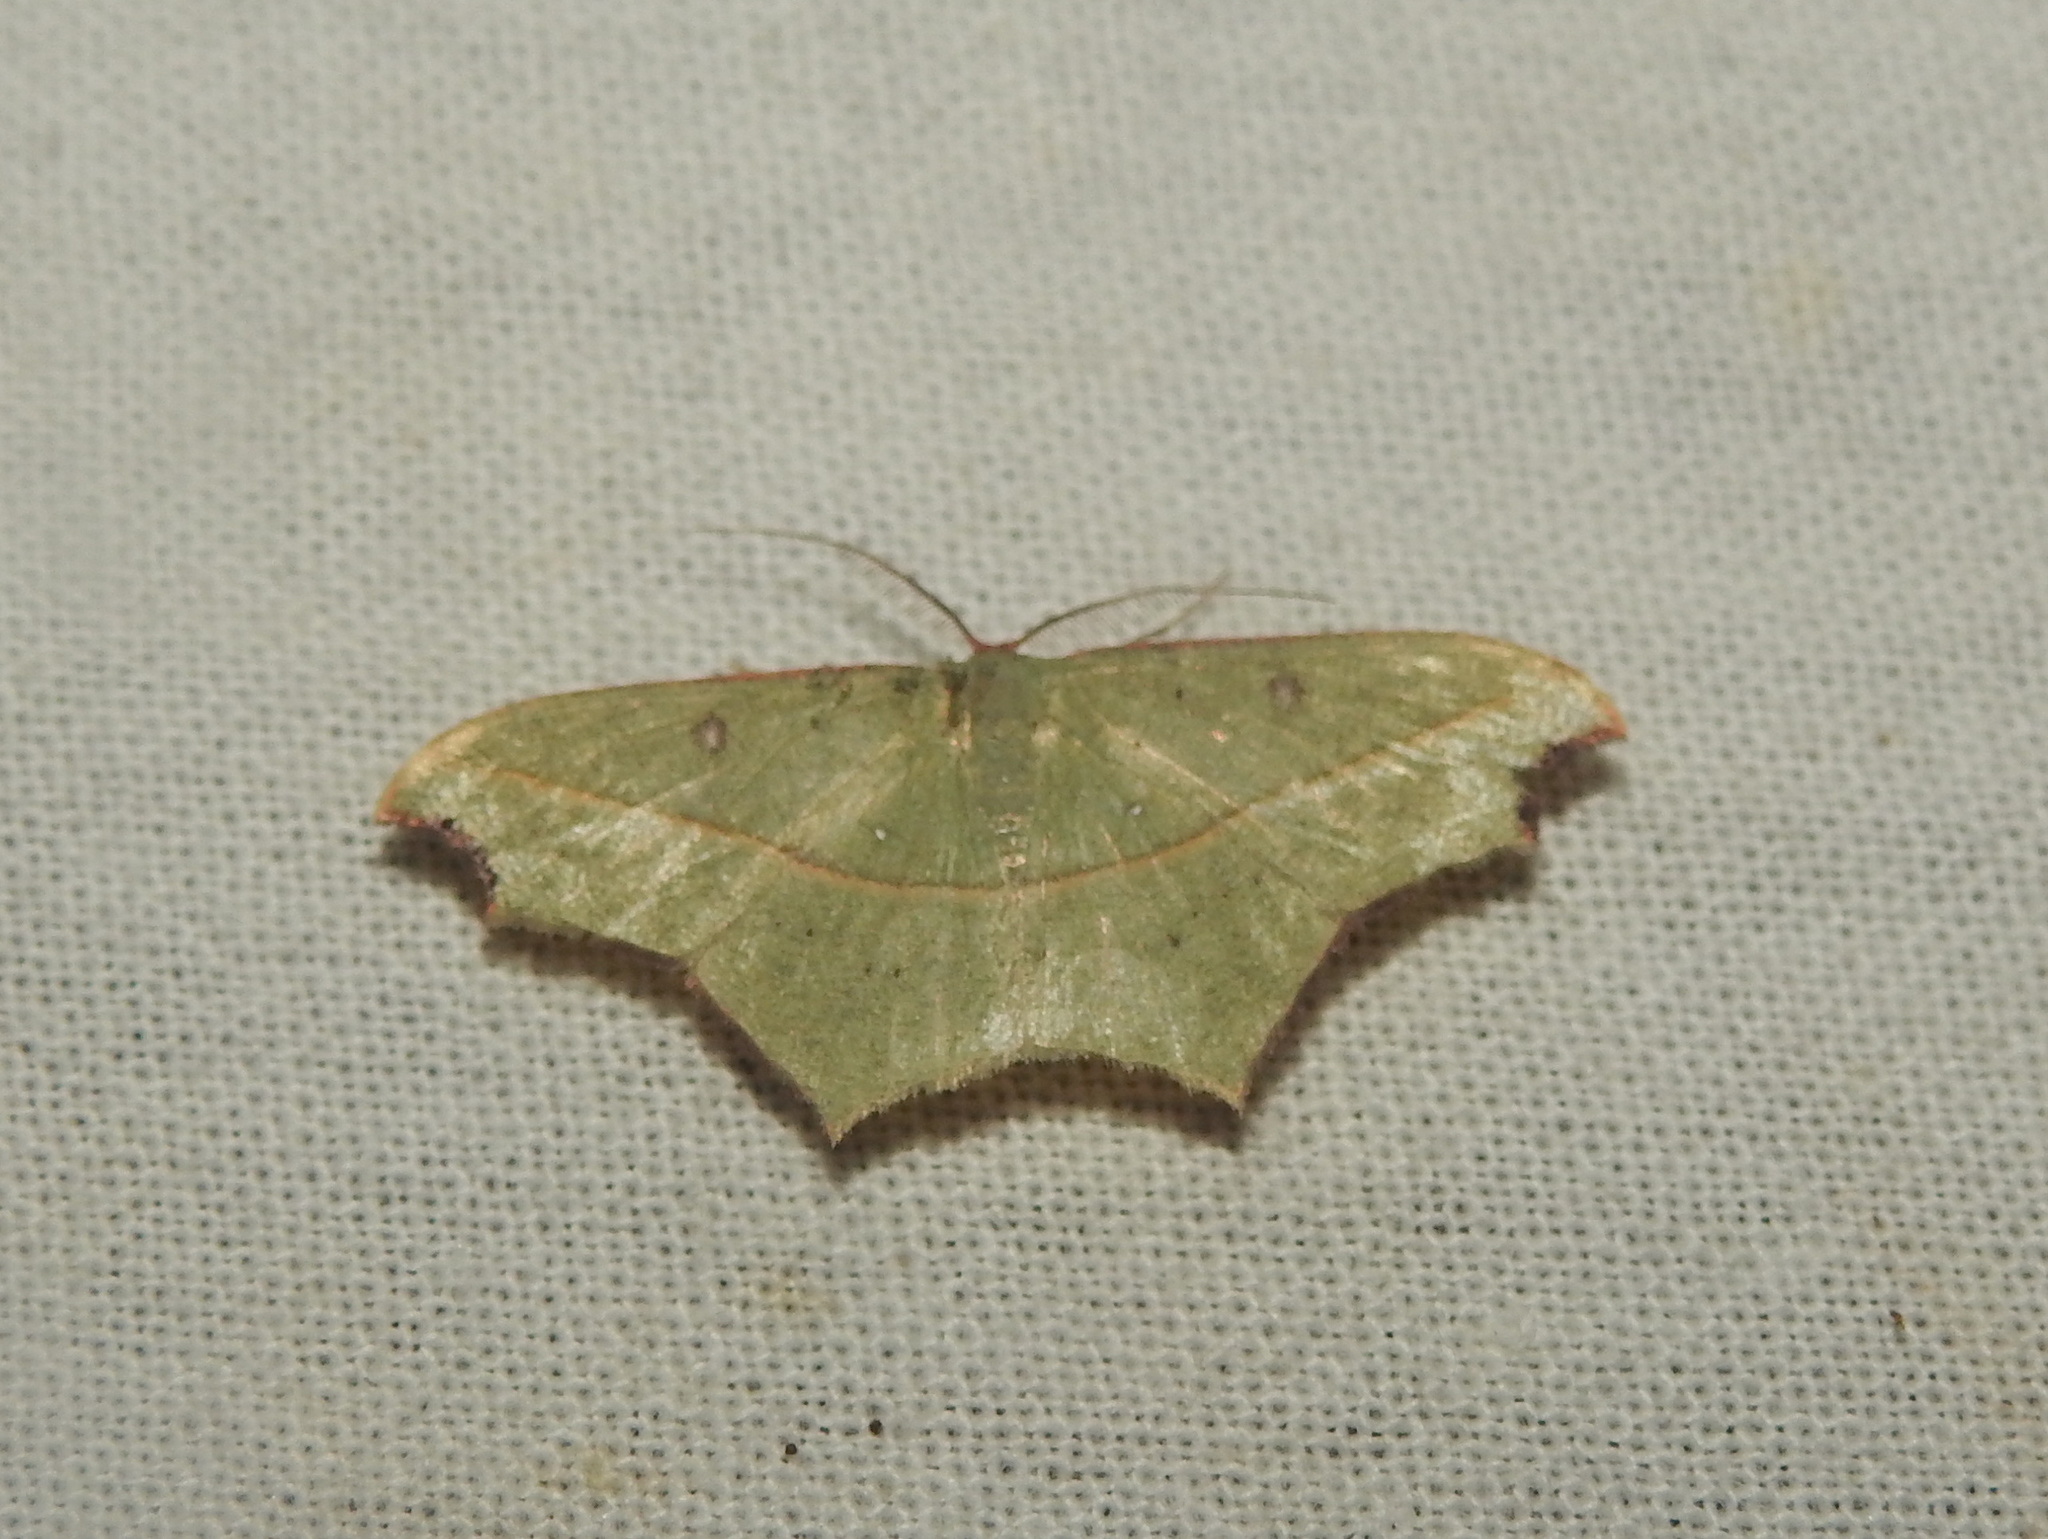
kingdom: Animalia
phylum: Arthropoda
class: Insecta
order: Lepidoptera
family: Geometridae
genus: Traminda
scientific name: Traminda aventiaria
